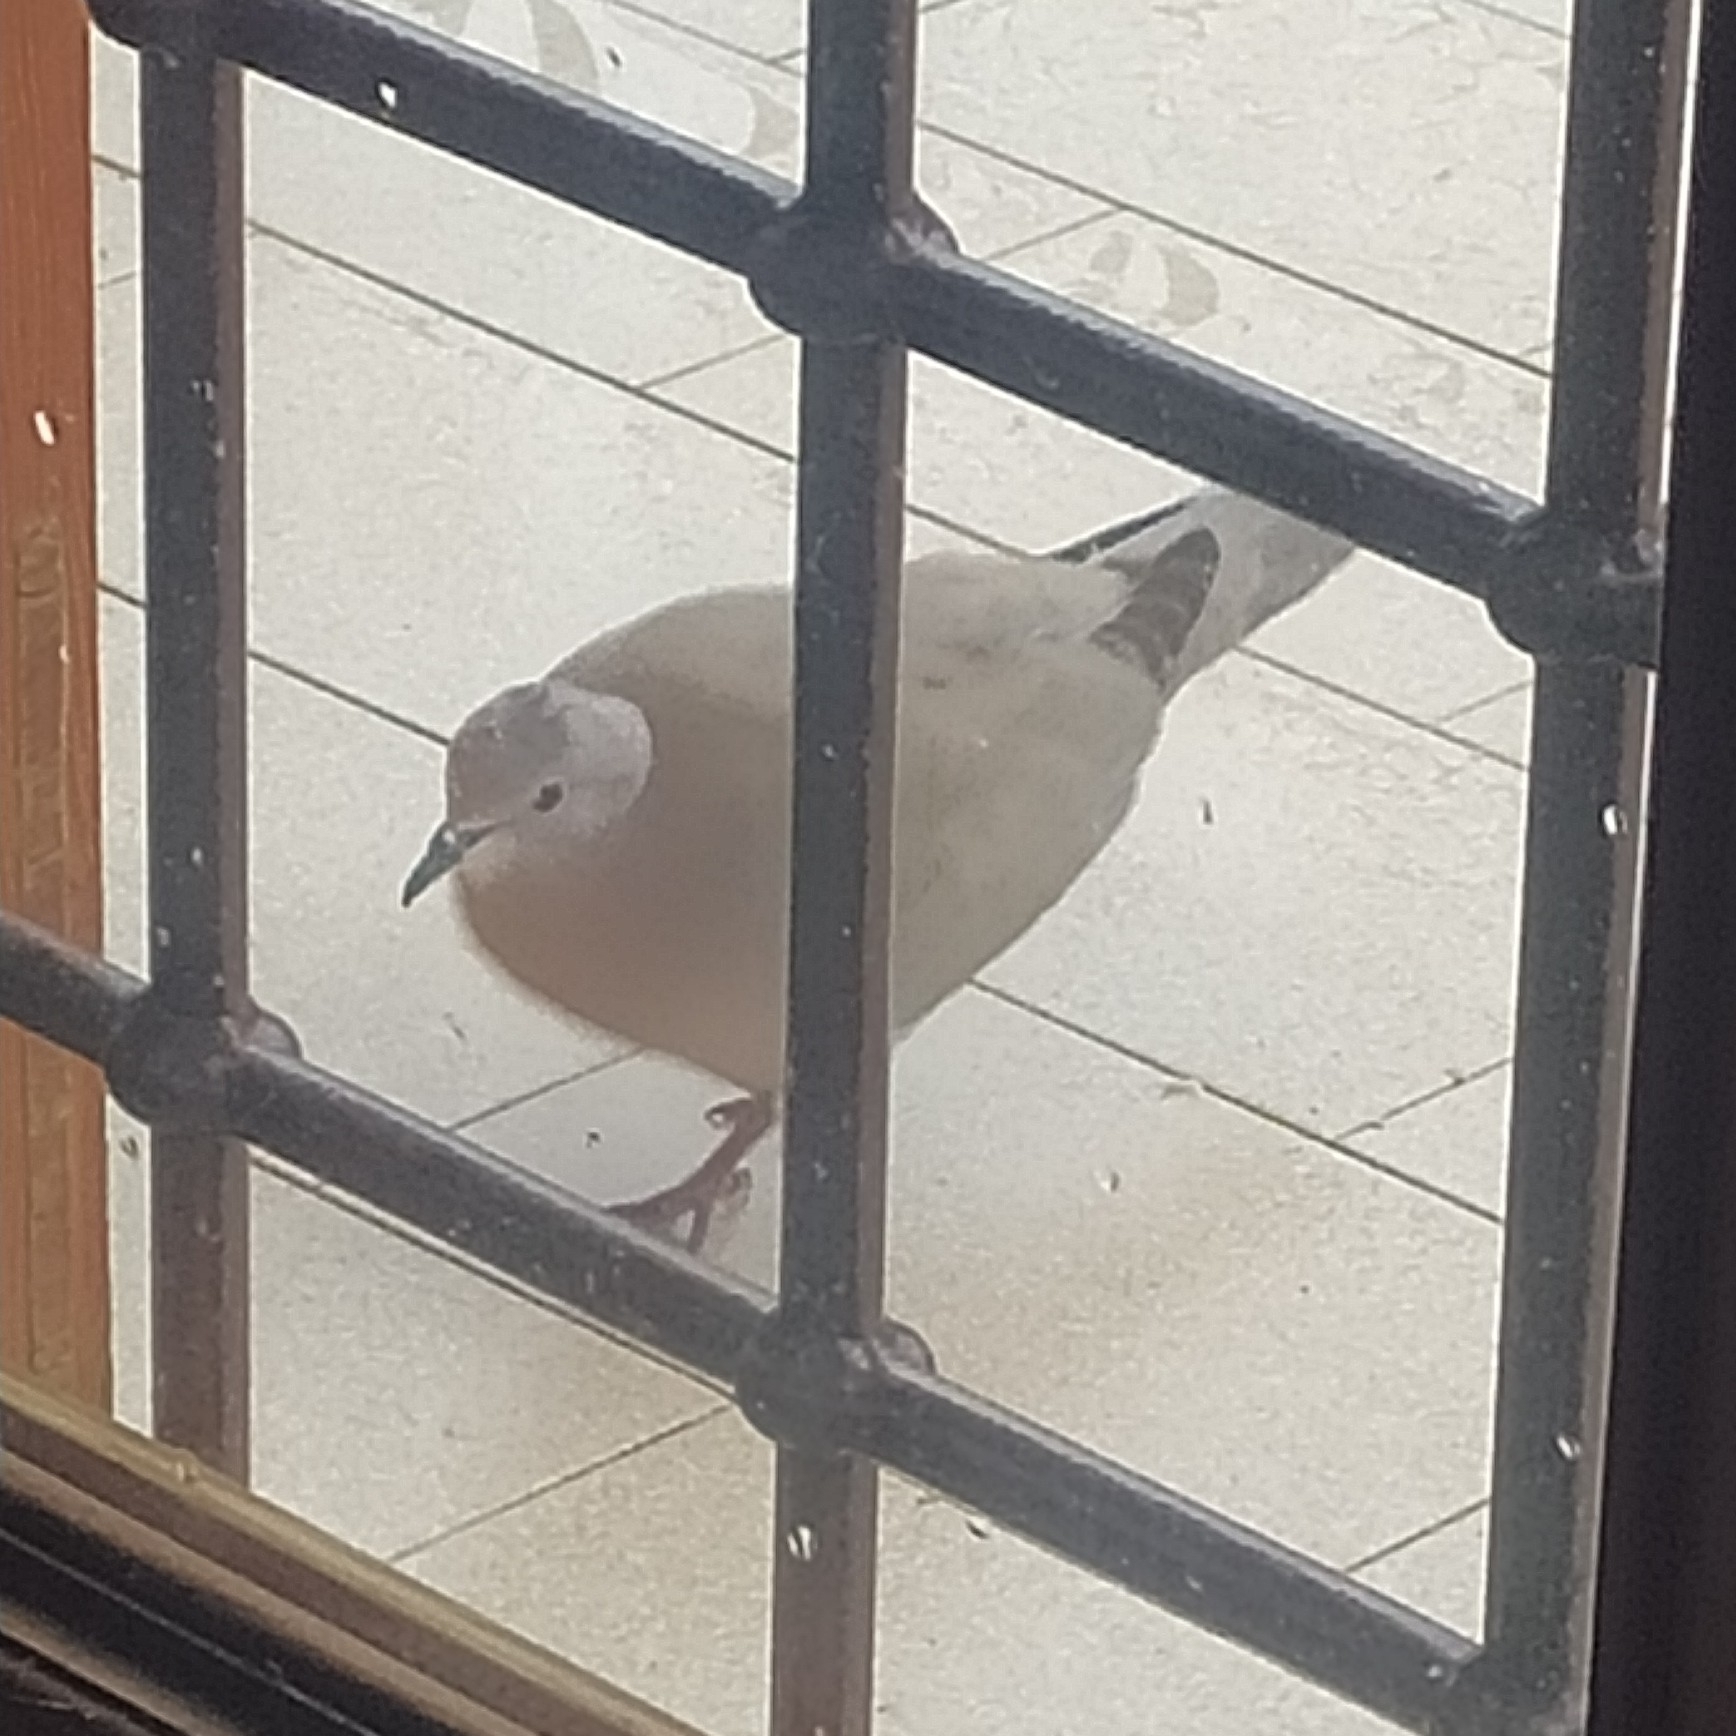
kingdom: Animalia
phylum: Chordata
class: Aves
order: Columbiformes
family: Columbidae
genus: Streptopelia
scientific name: Streptopelia decaocto
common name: Eurasian collared dove
